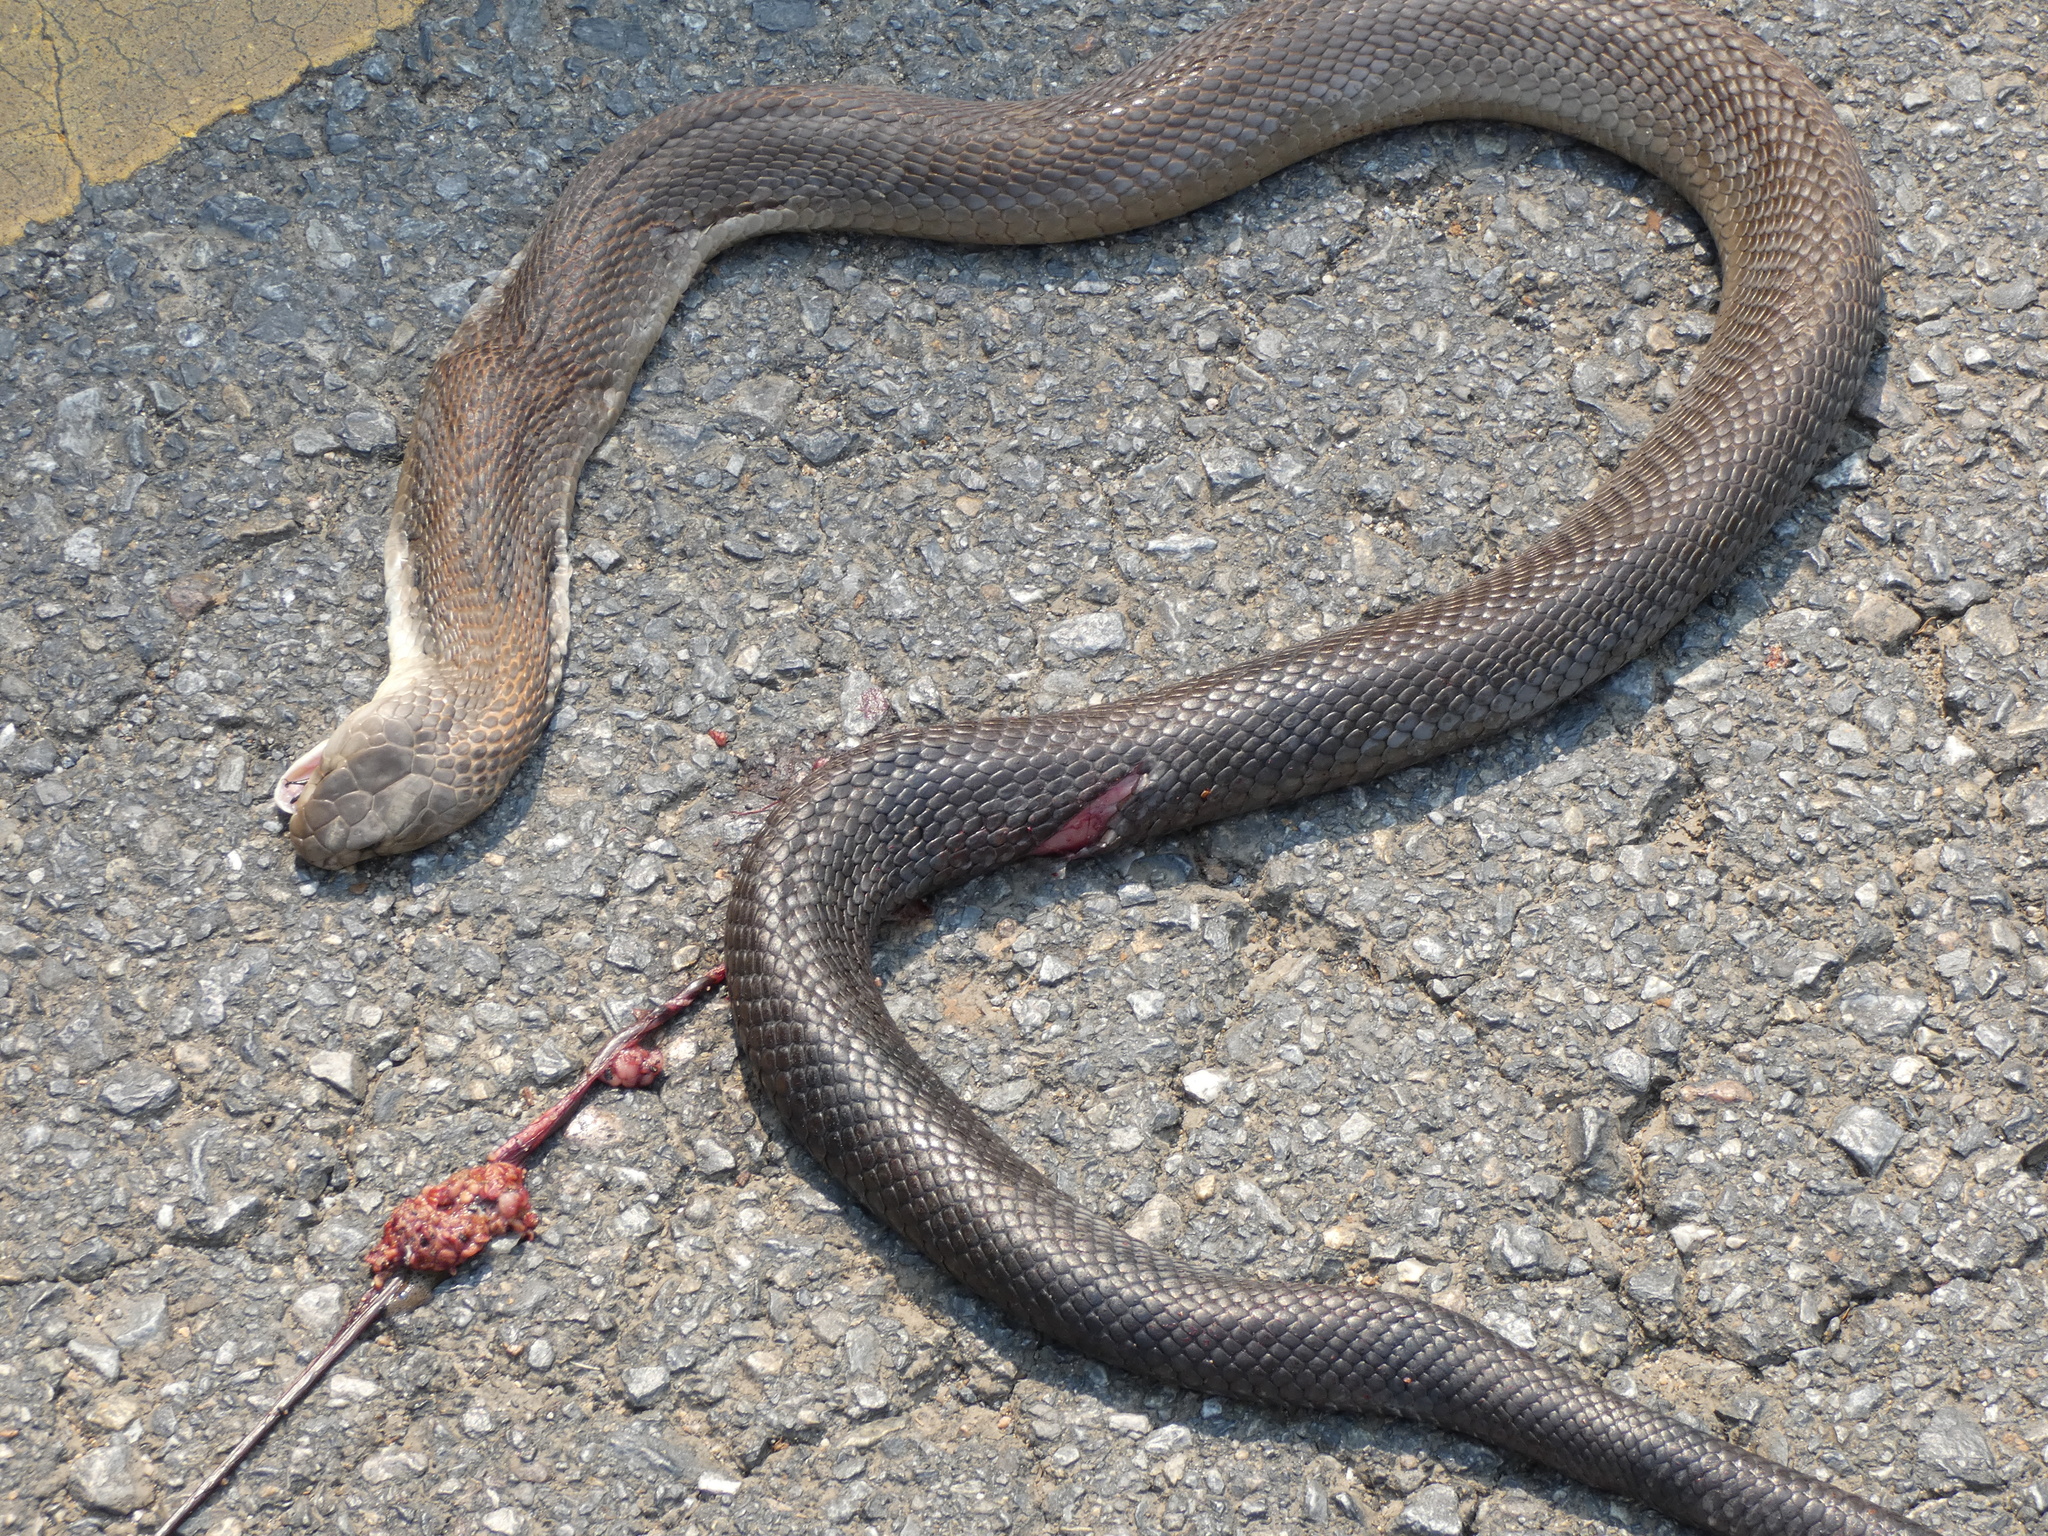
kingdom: Animalia
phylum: Chordata
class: Squamata
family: Elapidae
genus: Naja
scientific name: Naja
